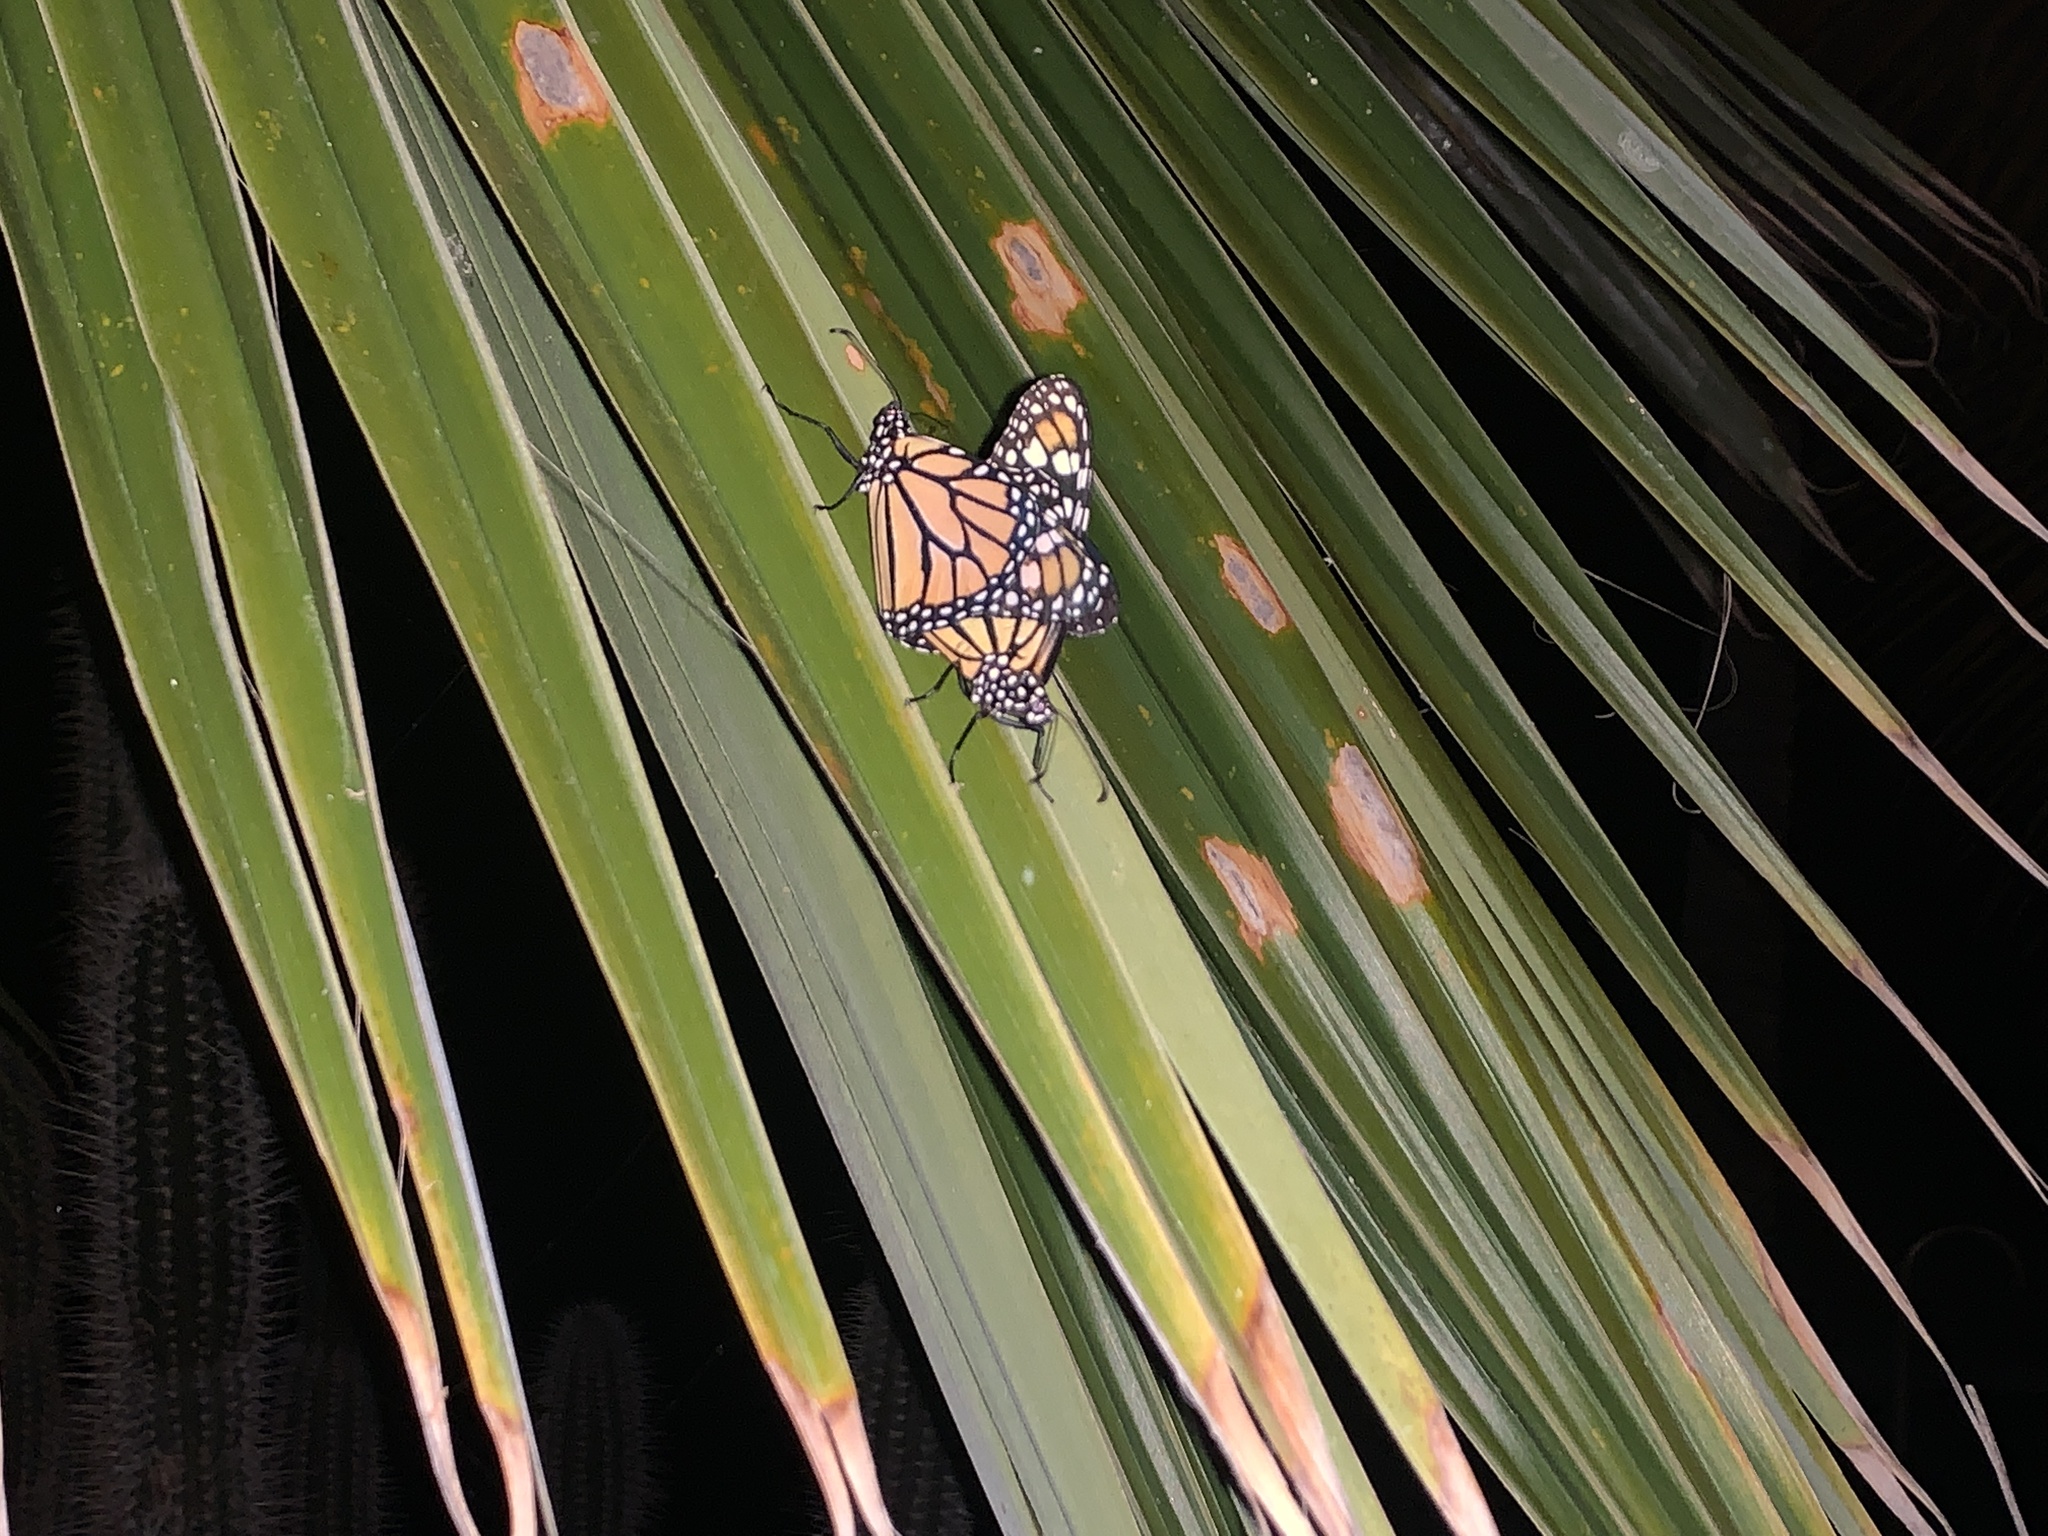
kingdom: Animalia
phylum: Arthropoda
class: Insecta
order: Lepidoptera
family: Nymphalidae
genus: Danaus
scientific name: Danaus plexippus
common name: Monarch
